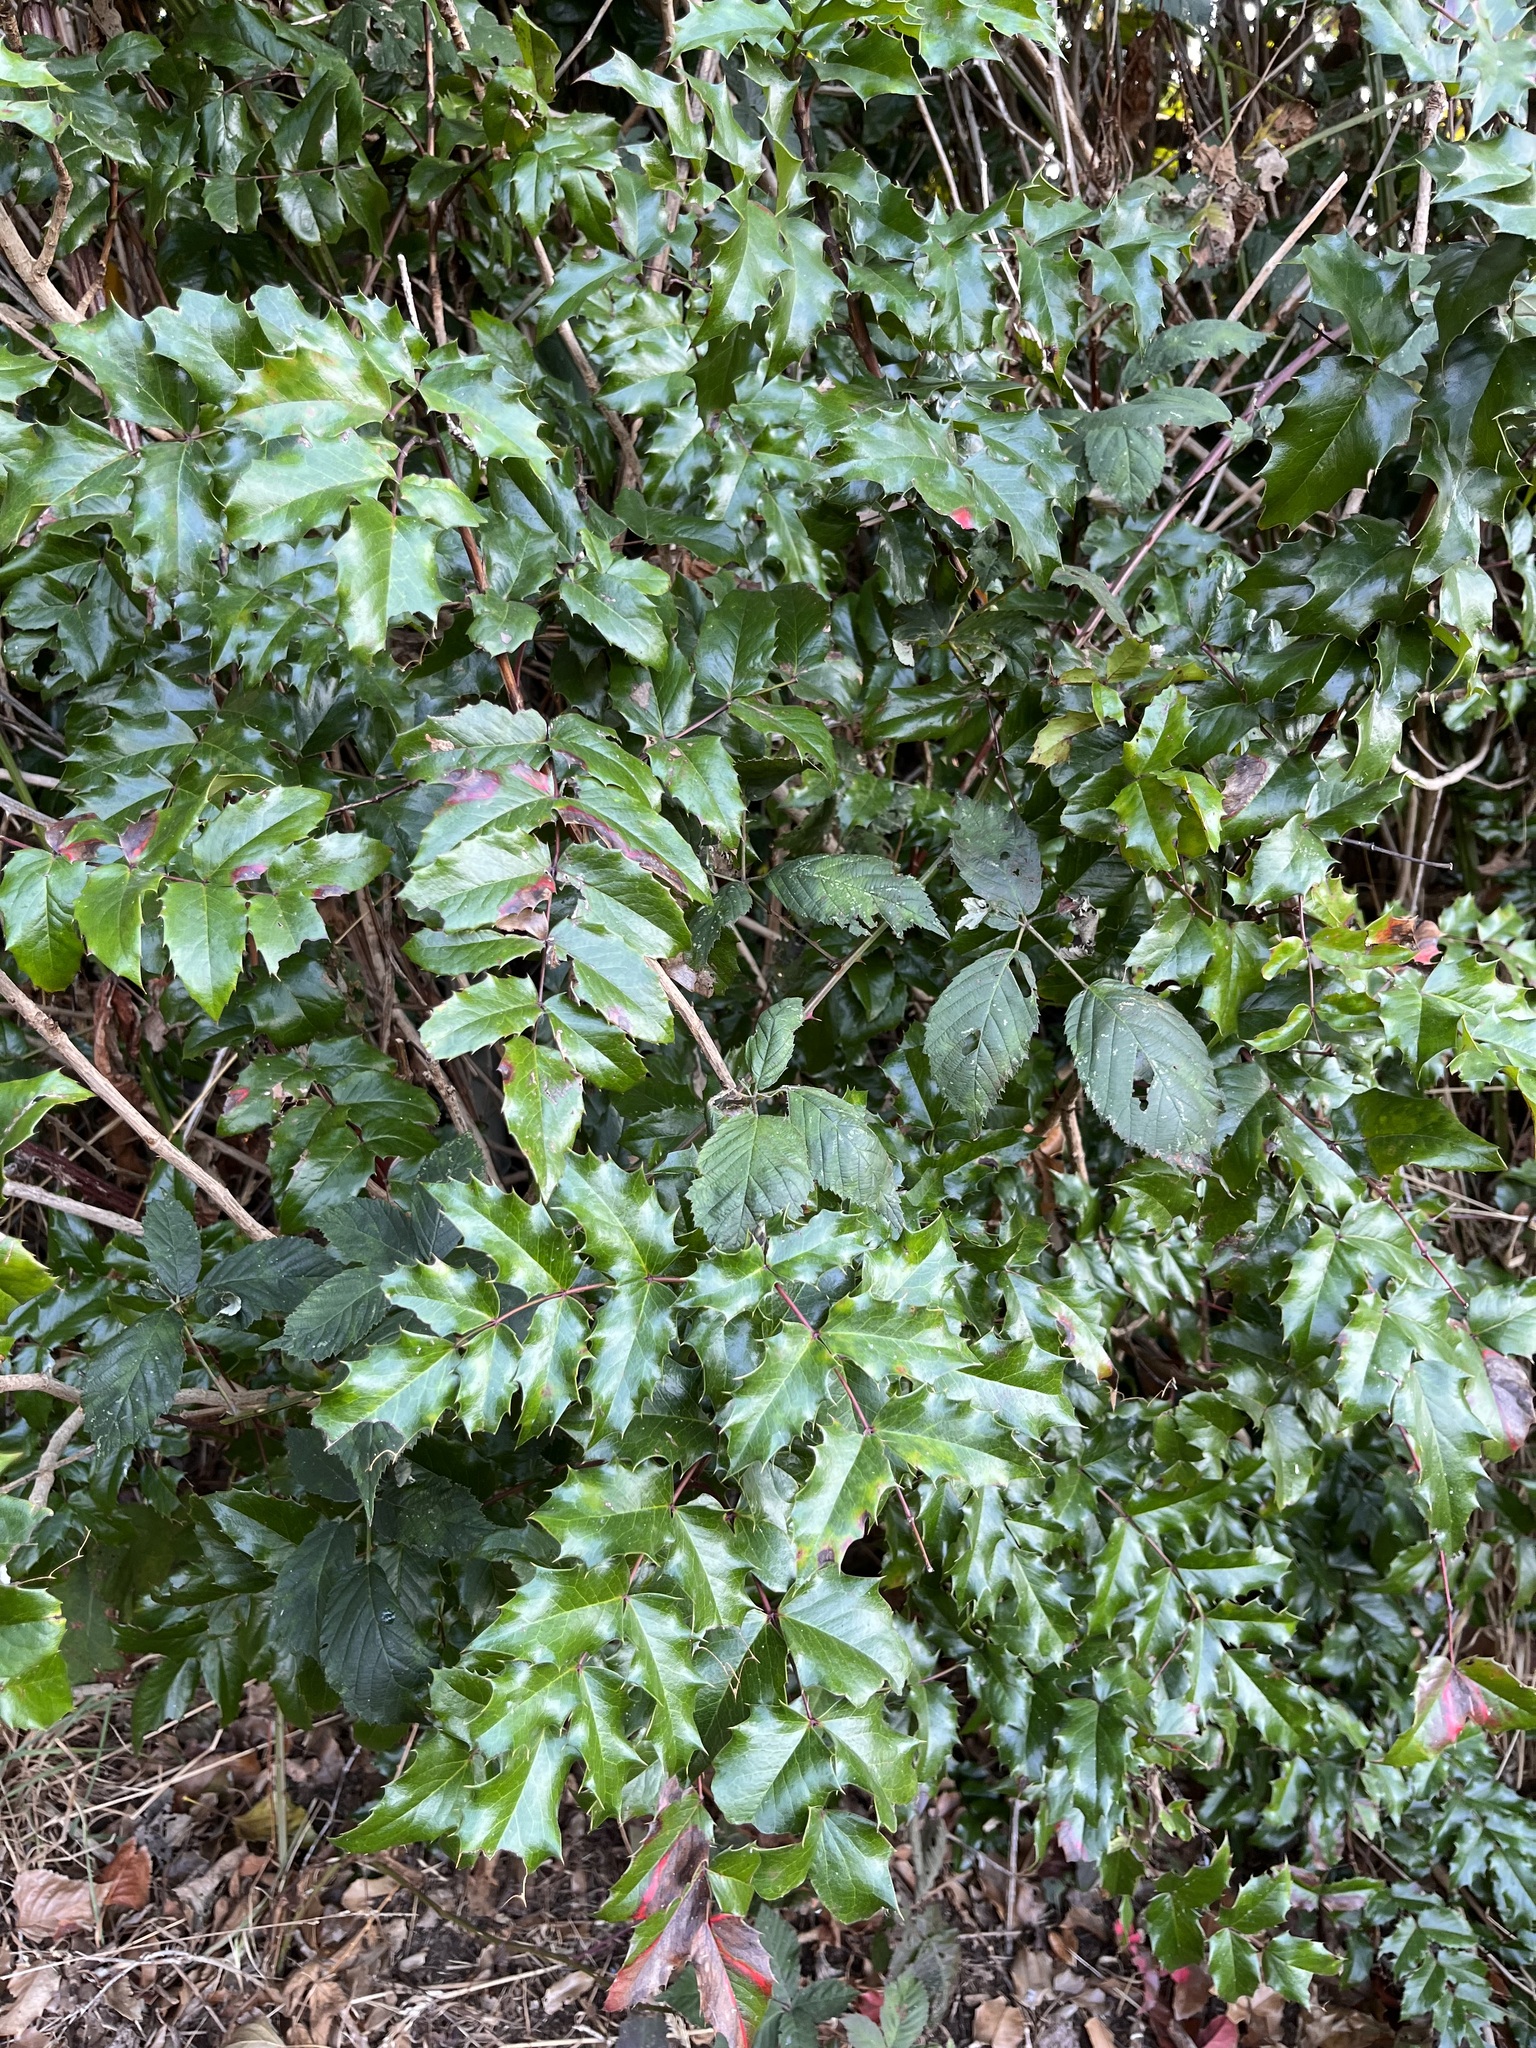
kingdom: Plantae
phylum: Tracheophyta
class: Magnoliopsida
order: Ranunculales
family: Berberidaceae
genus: Mahonia
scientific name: Mahonia aquifolium
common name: Oregon-grape
